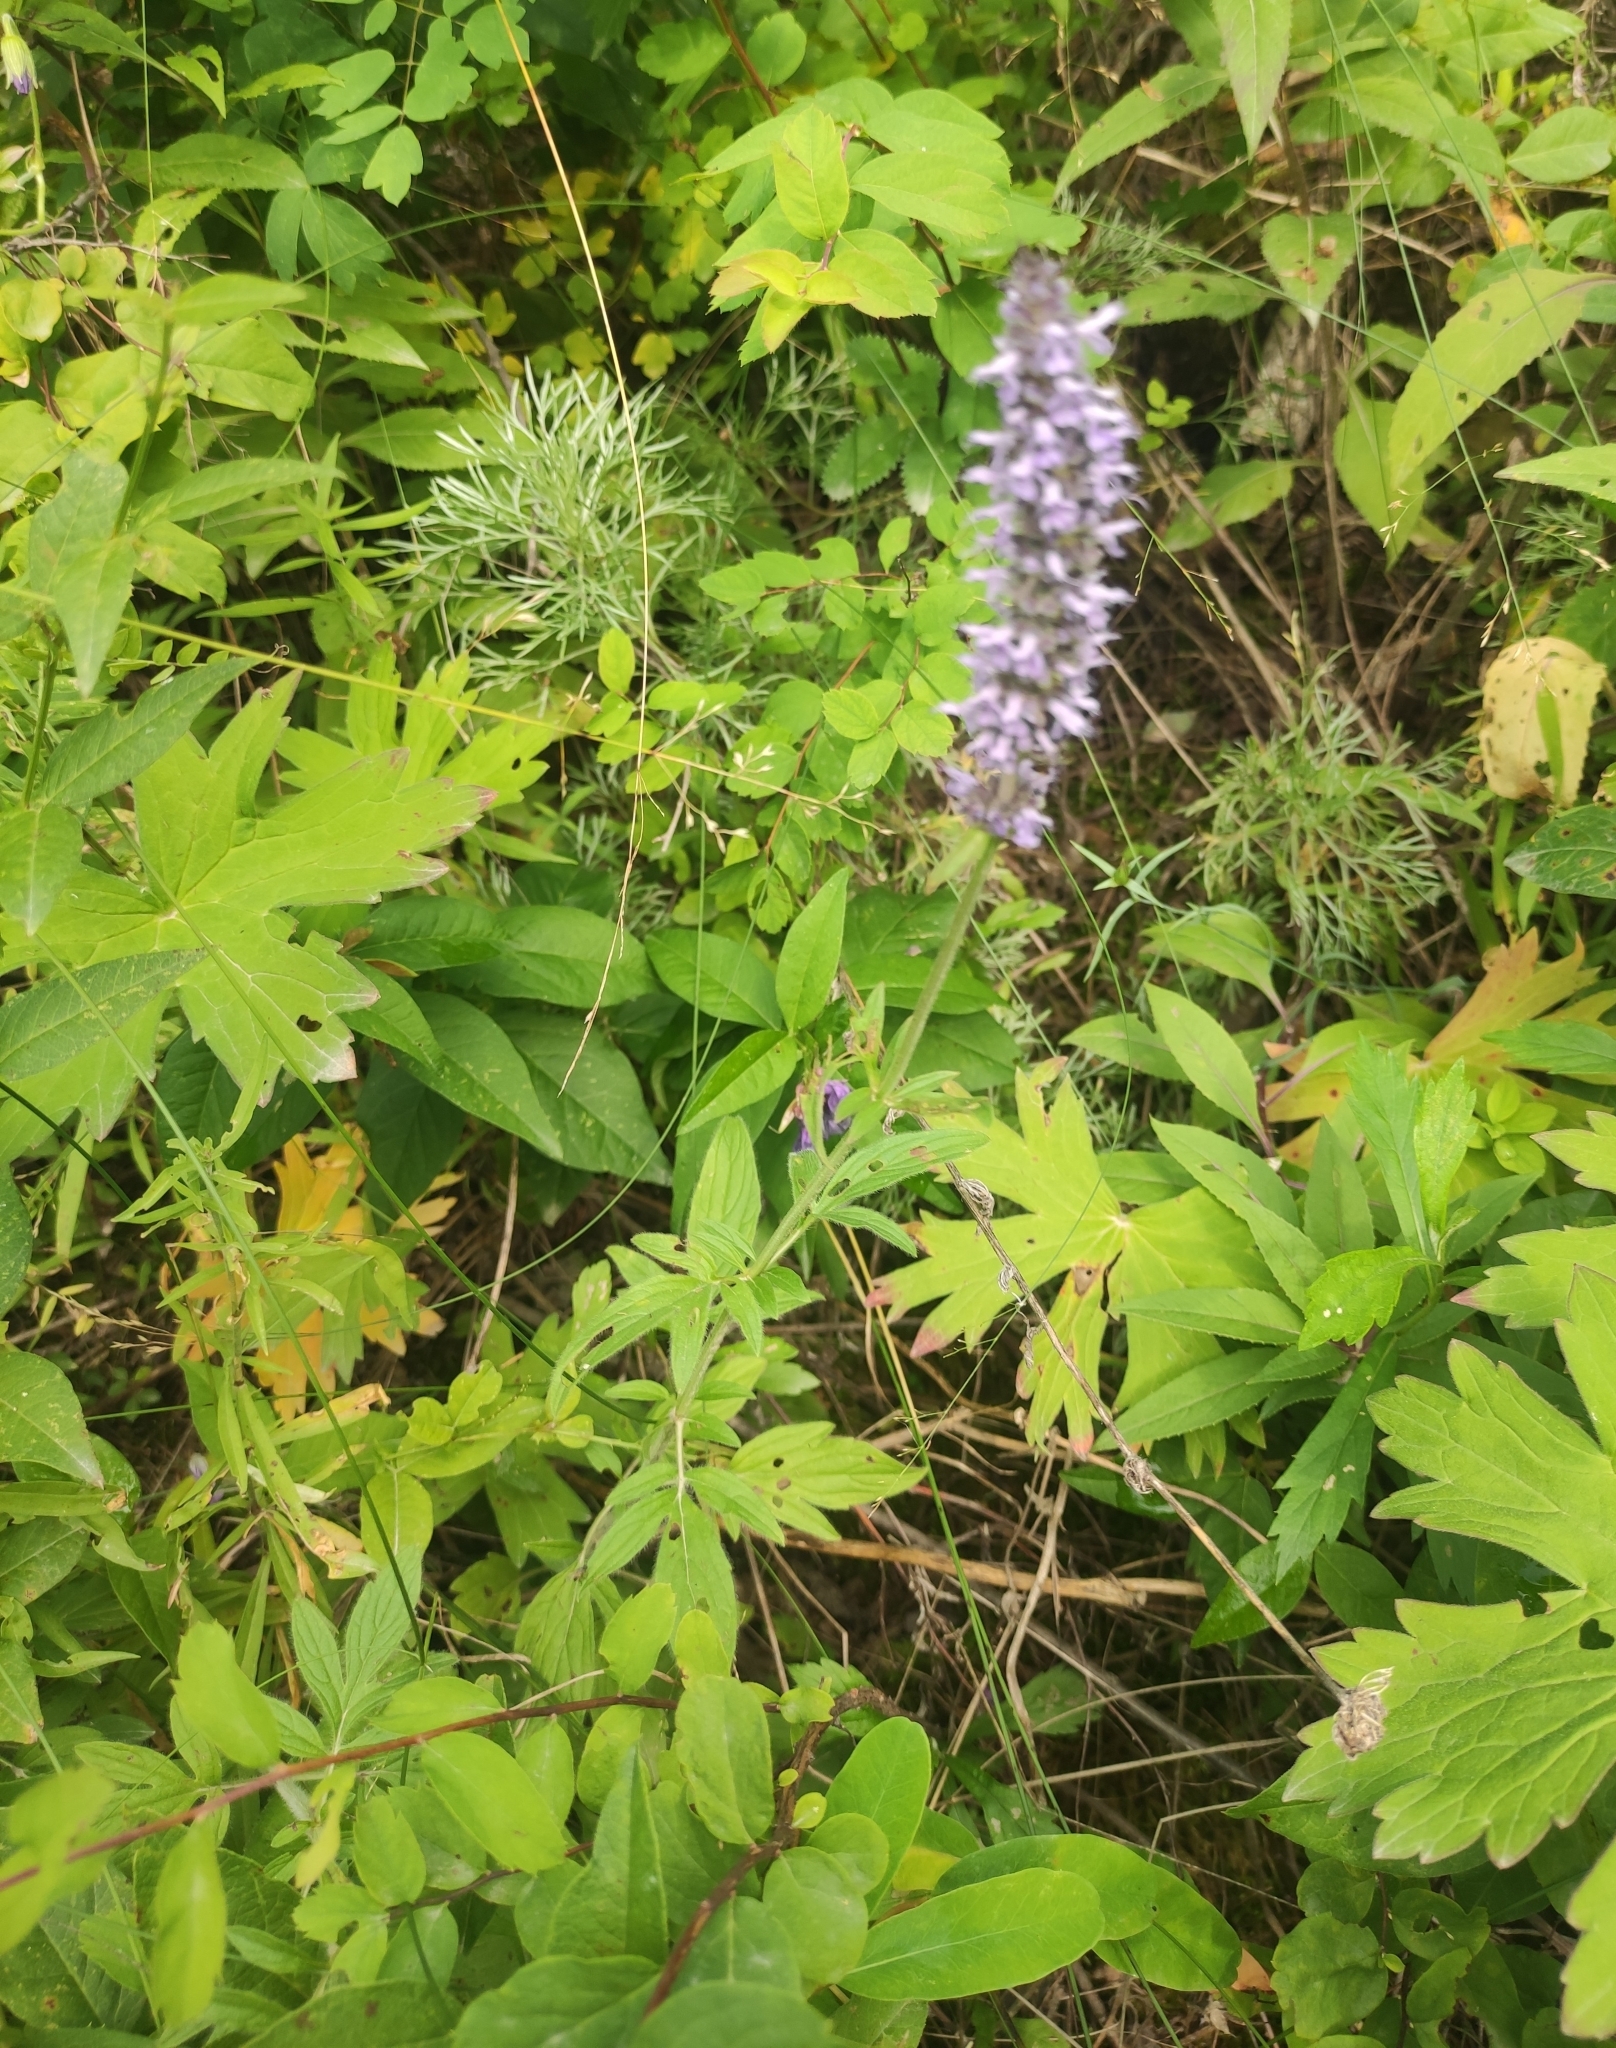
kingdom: Plantae
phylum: Tracheophyta
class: Magnoliopsida
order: Lamiales
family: Lamiaceae
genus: Nepeta
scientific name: Nepeta multifida
